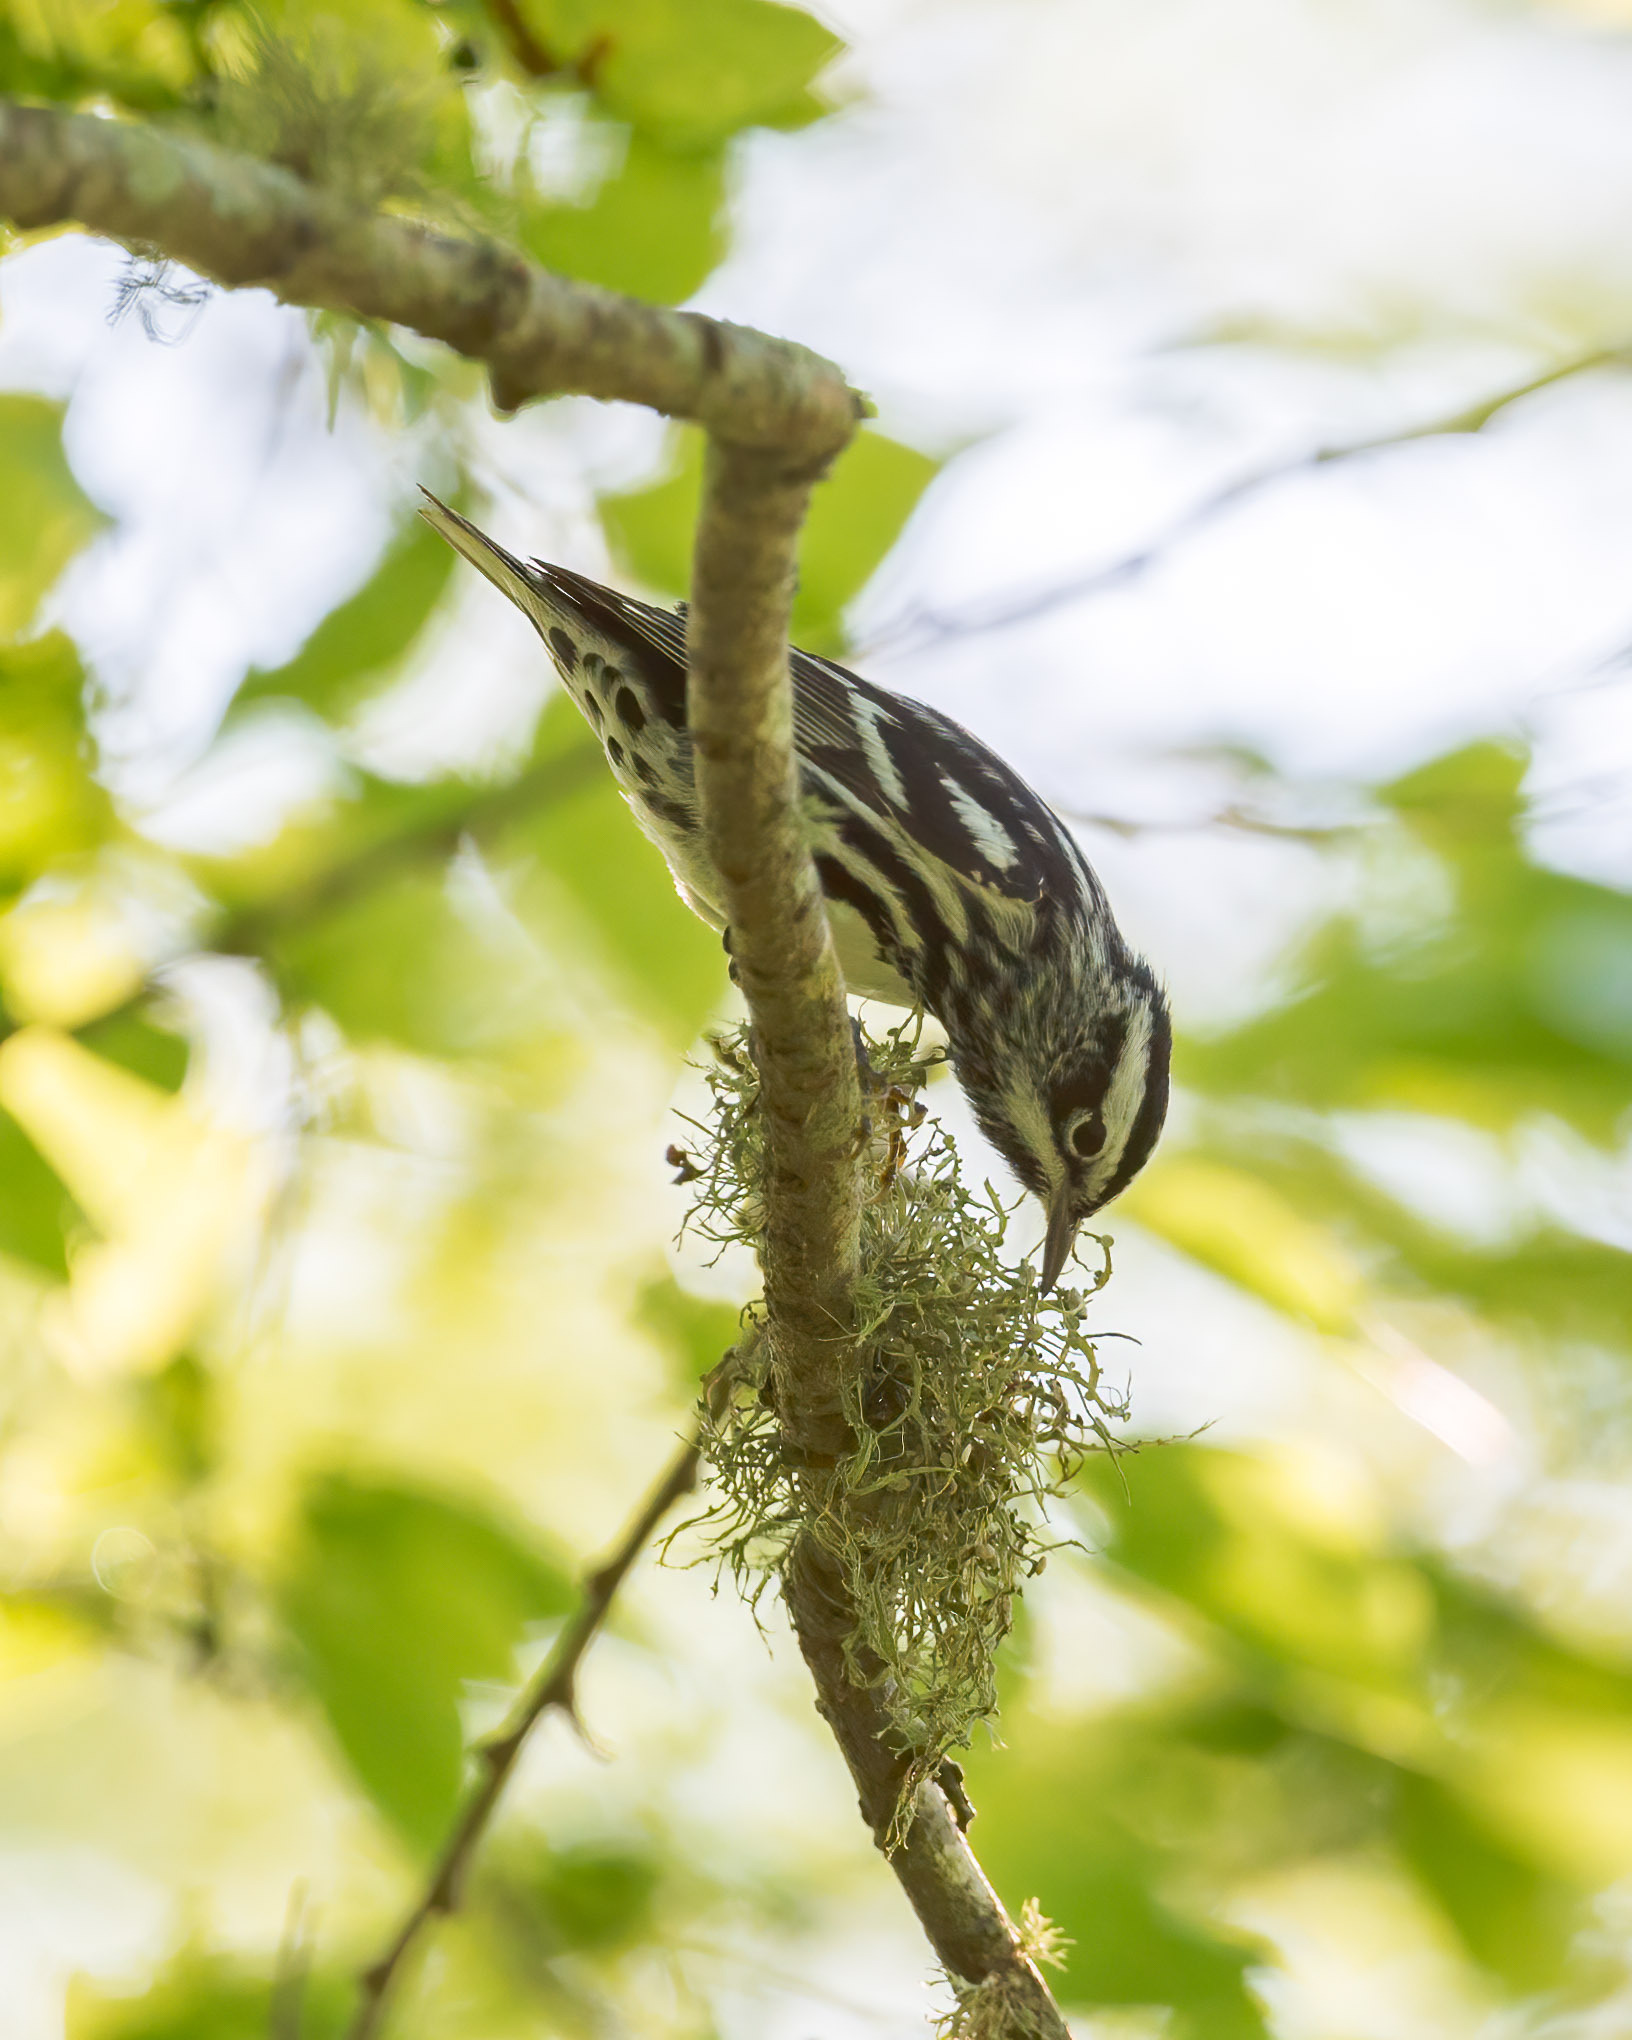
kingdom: Animalia
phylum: Chordata
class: Aves
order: Passeriformes
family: Parulidae
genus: Mniotilta
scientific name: Mniotilta varia
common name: Black-and-white warbler
